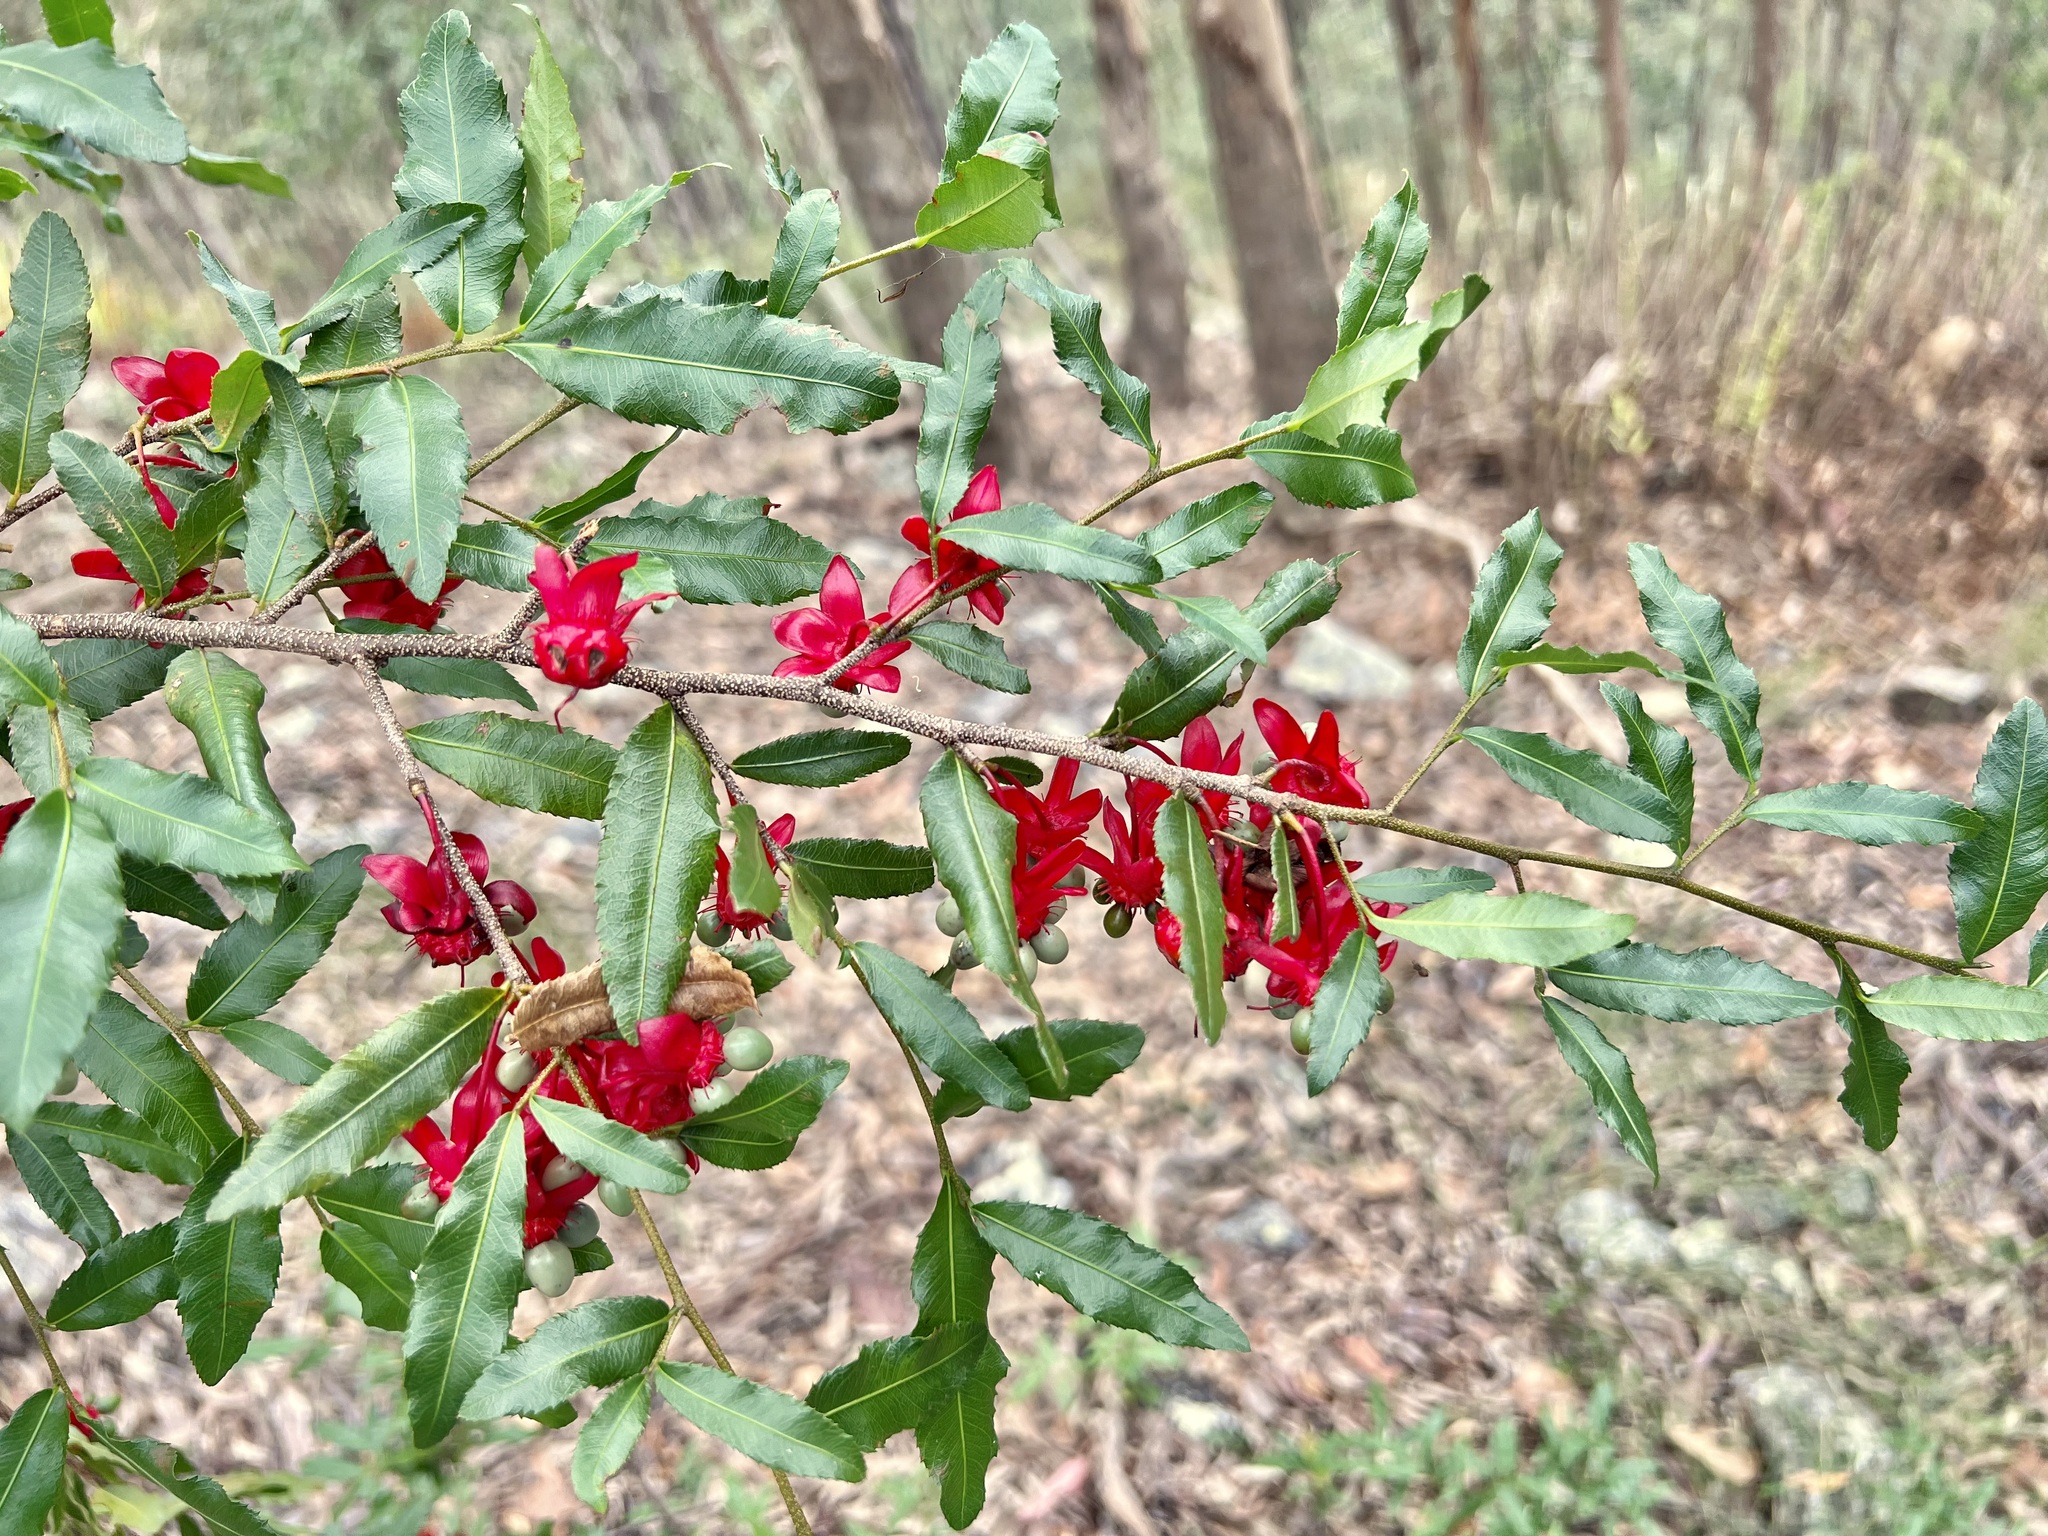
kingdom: Plantae
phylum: Tracheophyta
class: Magnoliopsida
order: Malpighiales
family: Ochnaceae
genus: Ochna
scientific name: Ochna serrulata
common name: Mickey mouse plant
